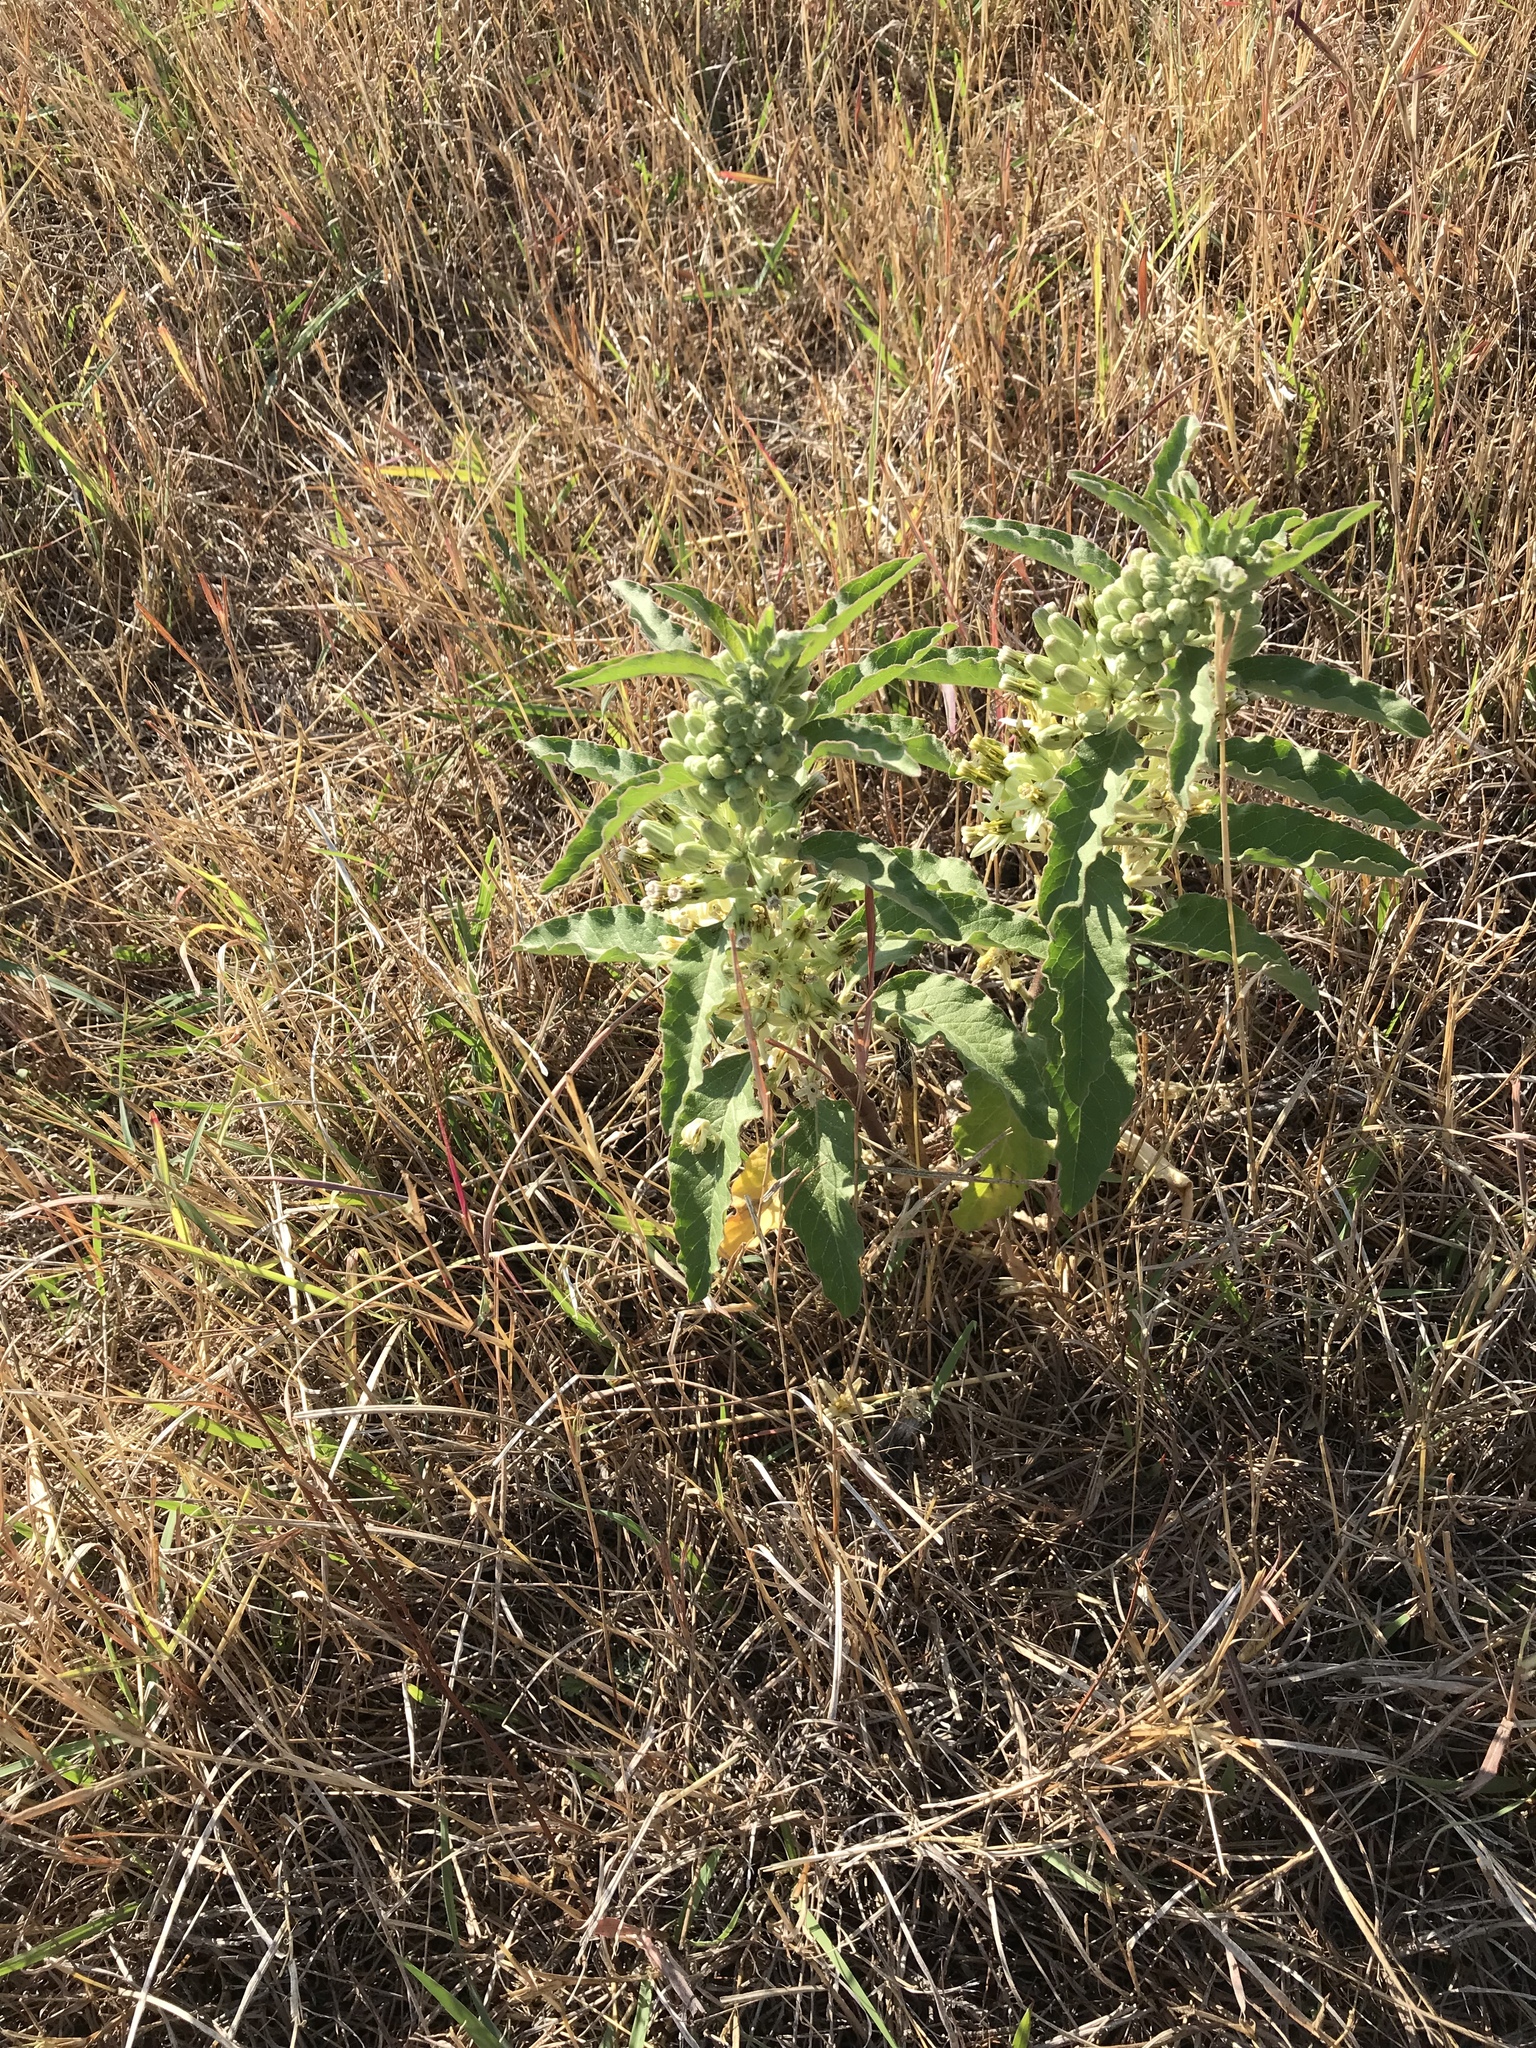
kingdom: Plantae
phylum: Tracheophyta
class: Magnoliopsida
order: Gentianales
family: Apocynaceae
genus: Asclepias
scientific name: Asclepias oenotheroides
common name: Zizotes milkweed
